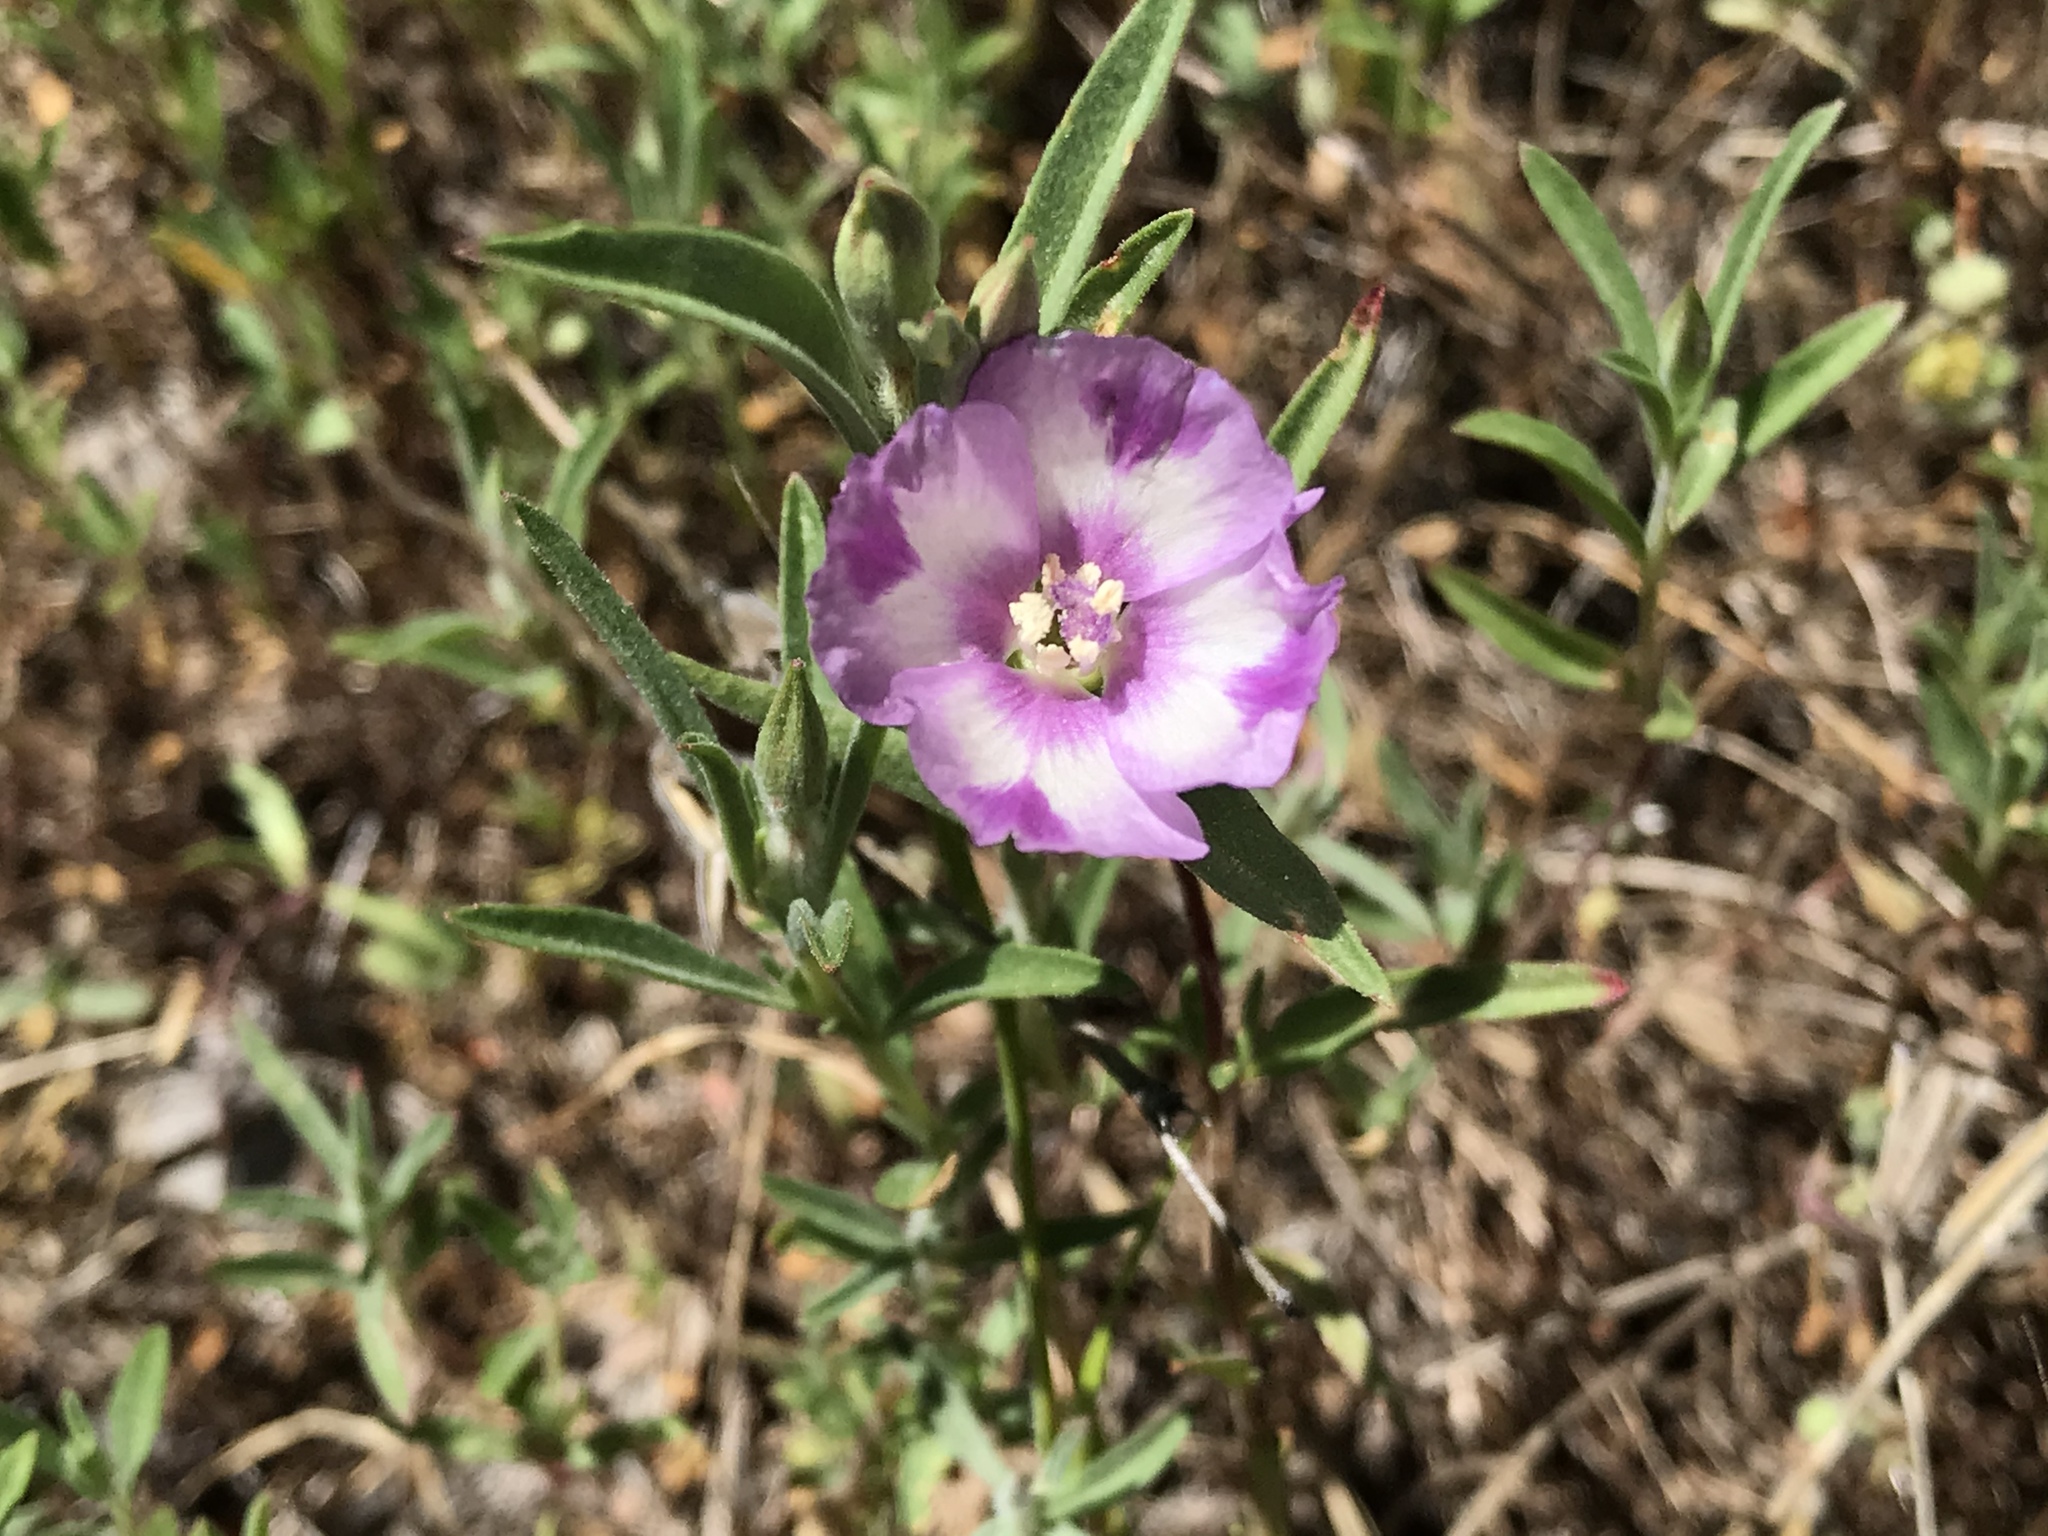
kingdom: Plantae
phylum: Tracheophyta
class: Magnoliopsida
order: Myrtales
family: Onagraceae
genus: Clarkia
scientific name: Clarkia purpurea
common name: Purple clarkia
